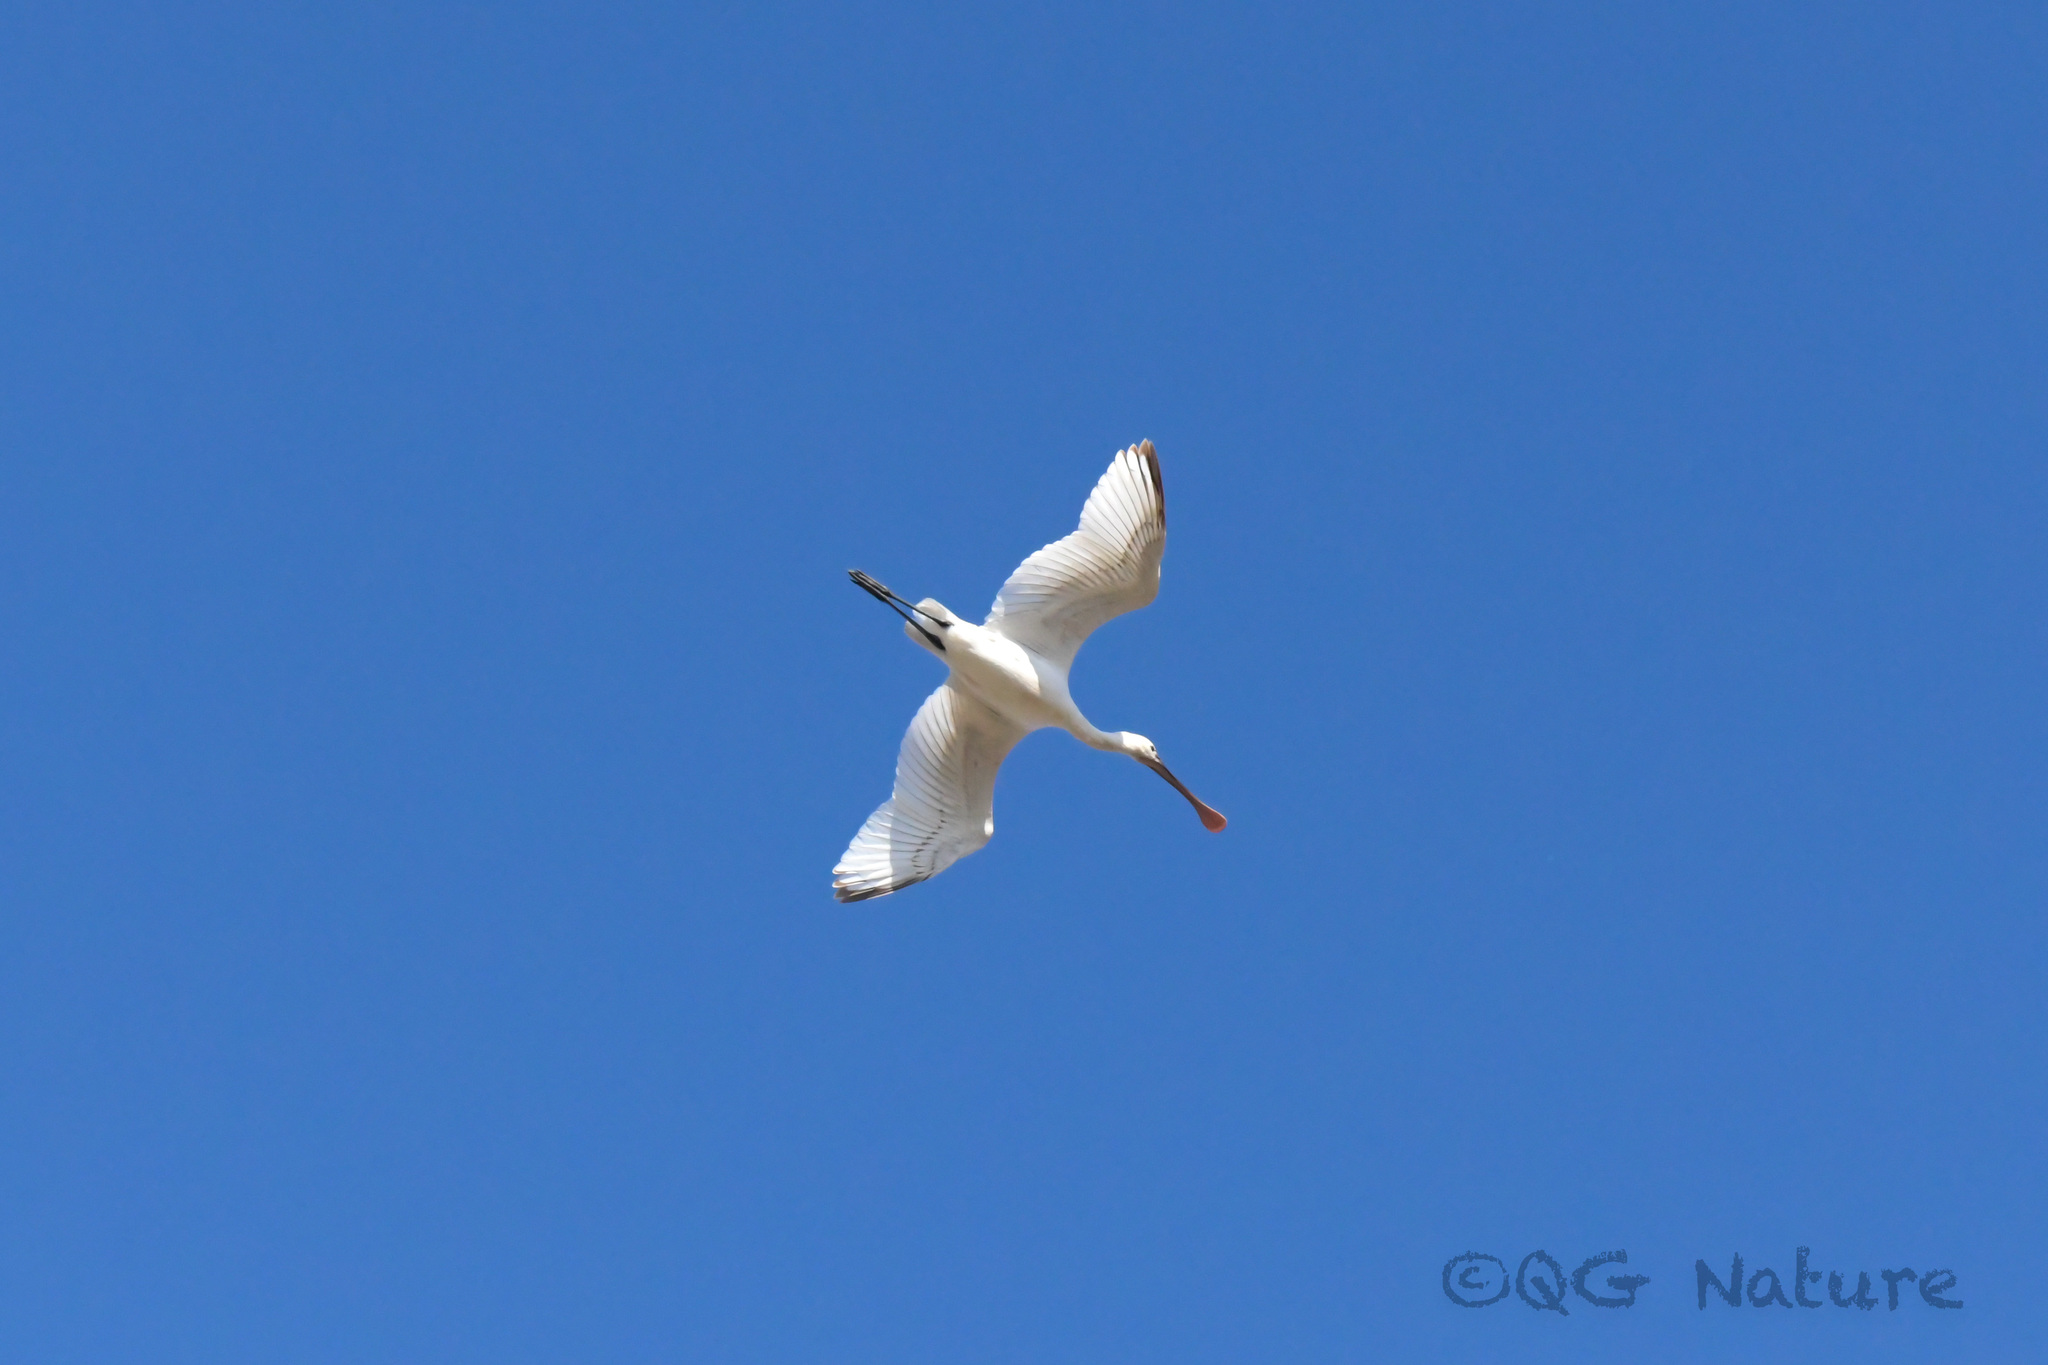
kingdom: Animalia
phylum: Chordata
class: Aves
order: Pelecaniformes
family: Threskiornithidae
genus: Platalea
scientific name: Platalea leucorodia
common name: Eurasian spoonbill
